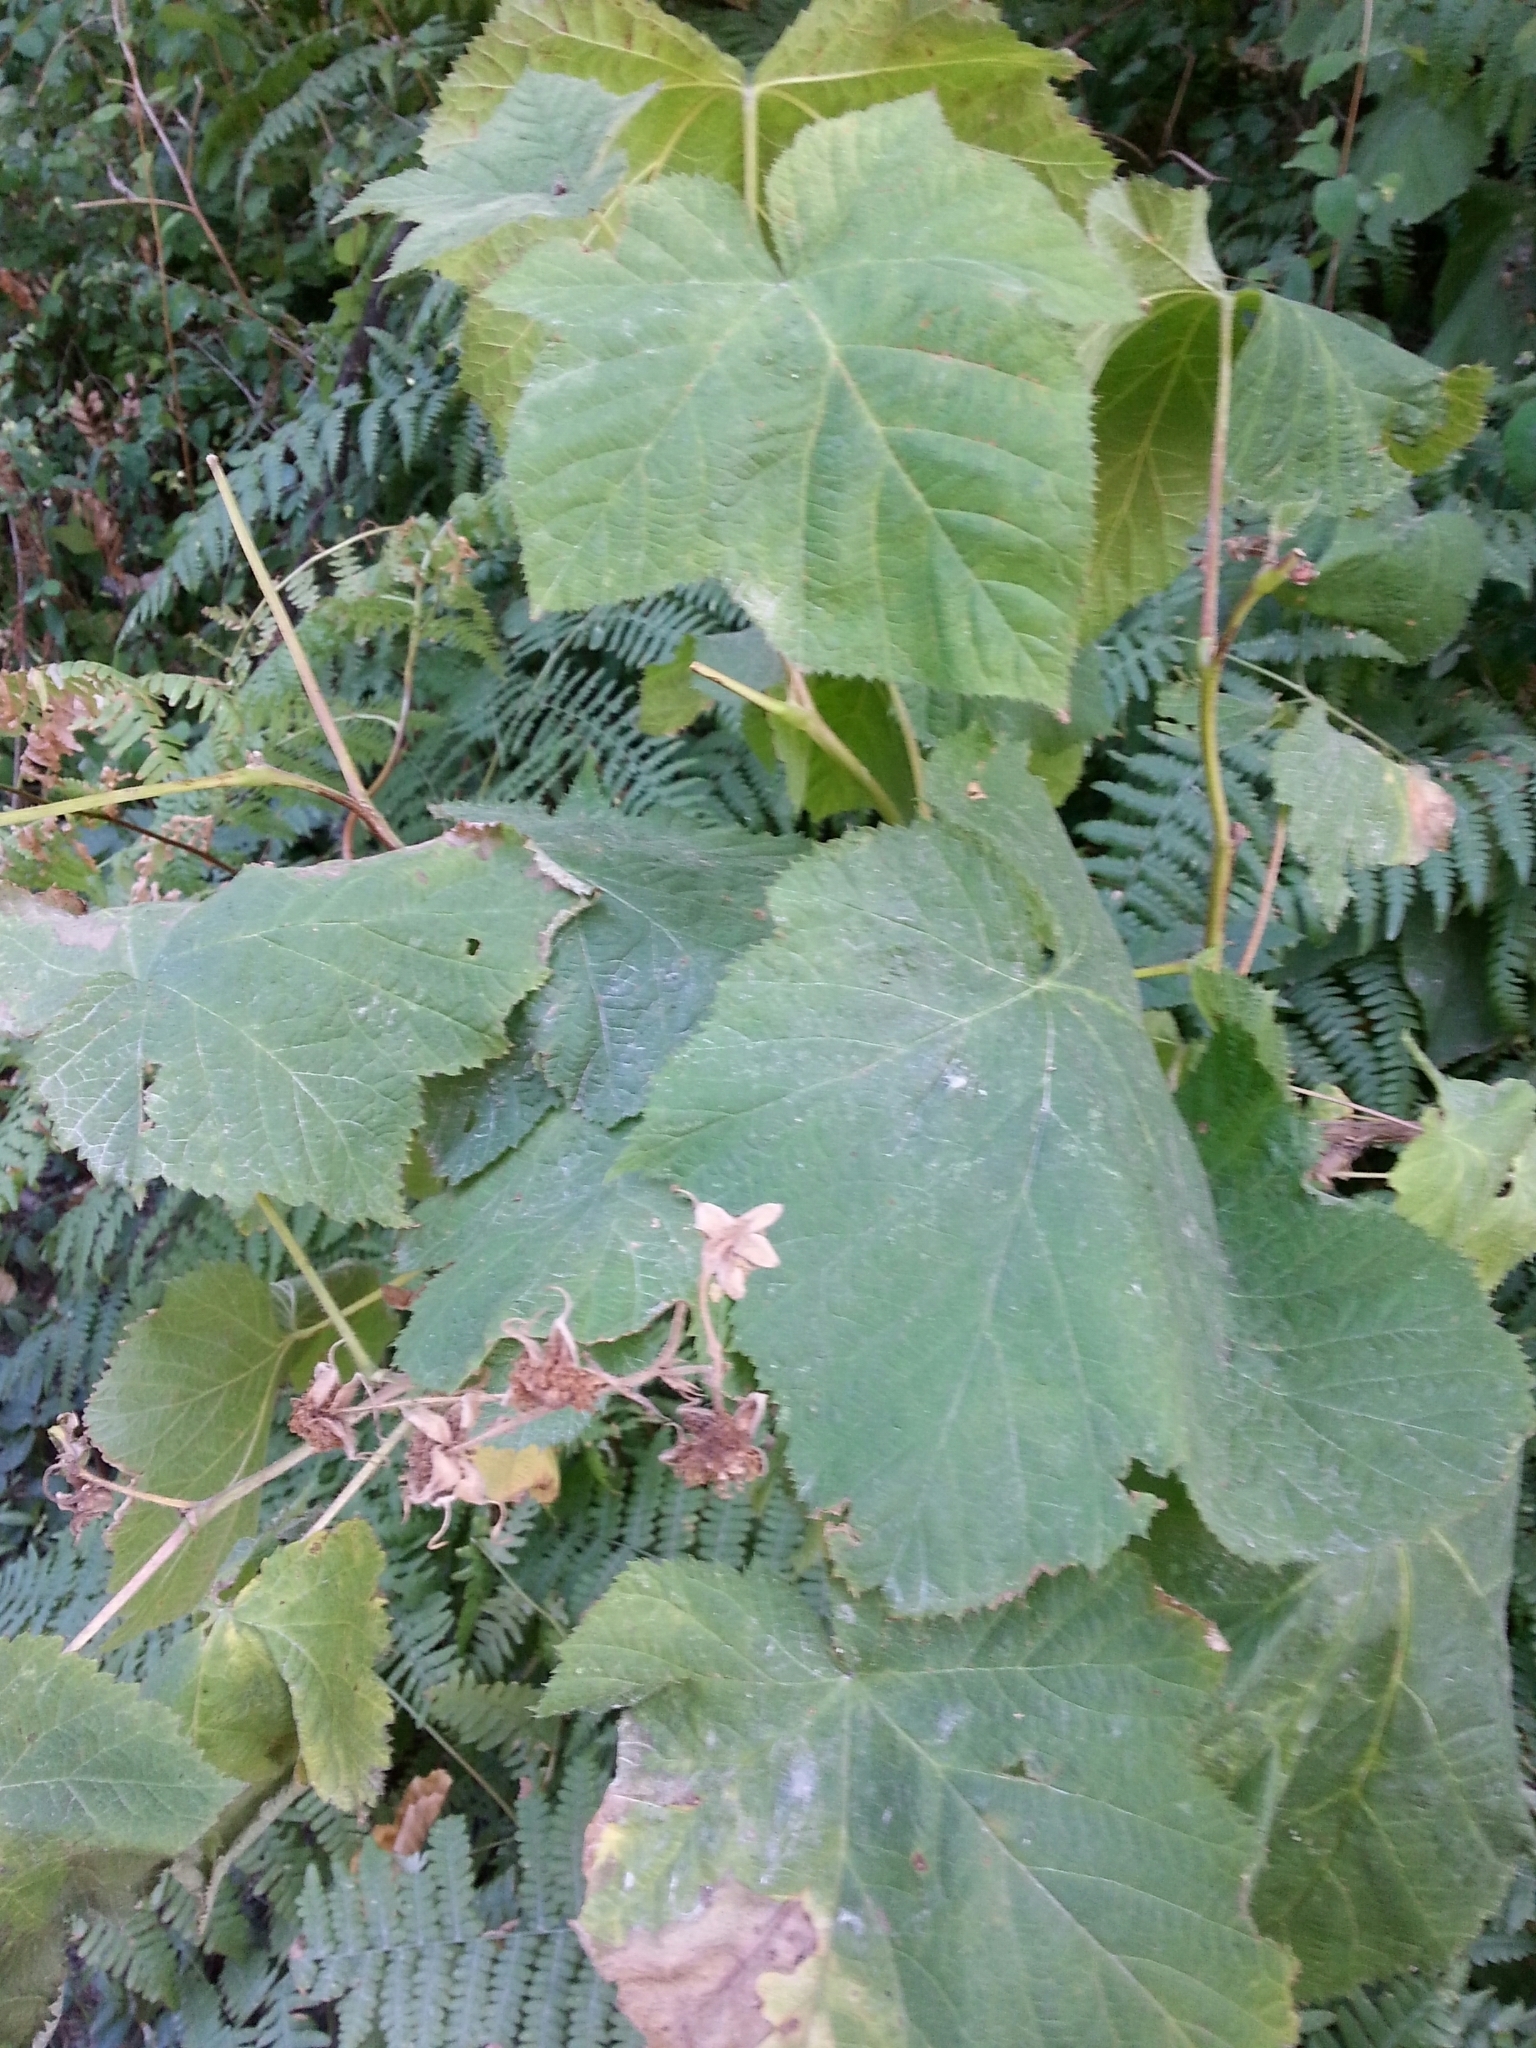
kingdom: Plantae
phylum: Tracheophyta
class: Magnoliopsida
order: Rosales
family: Rosaceae
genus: Rubus
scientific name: Rubus parviflorus
